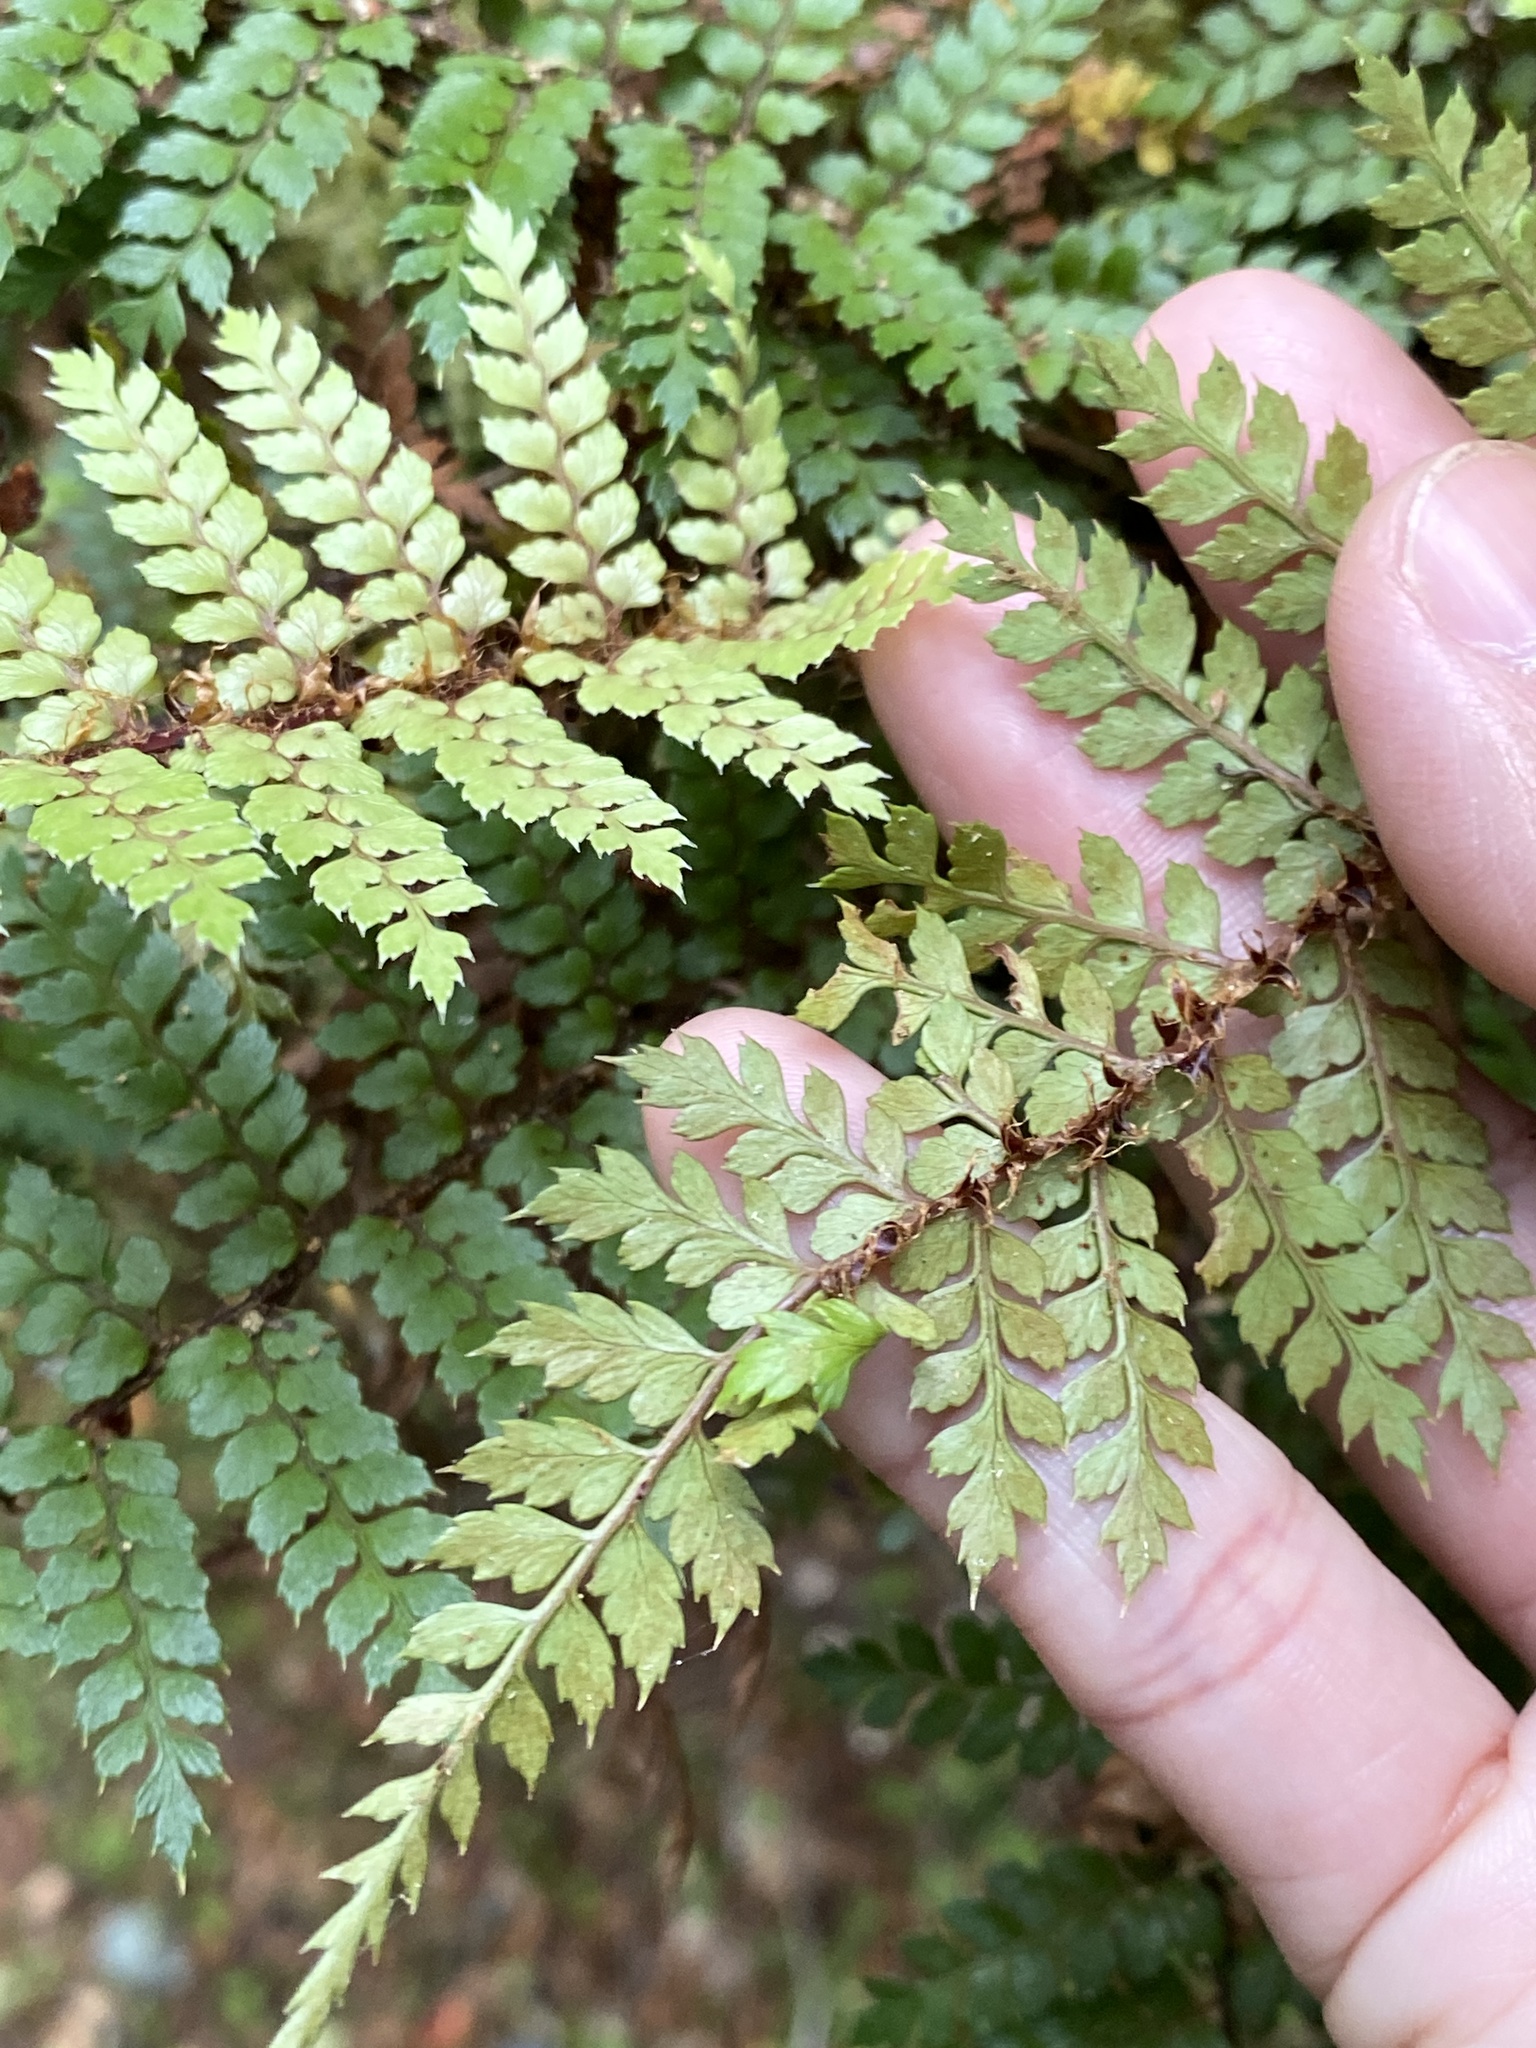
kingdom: Plantae
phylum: Tracheophyta
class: Polypodiopsida
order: Polypodiales
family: Dryopteridaceae
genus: Polystichum
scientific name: Polystichum vestitum
